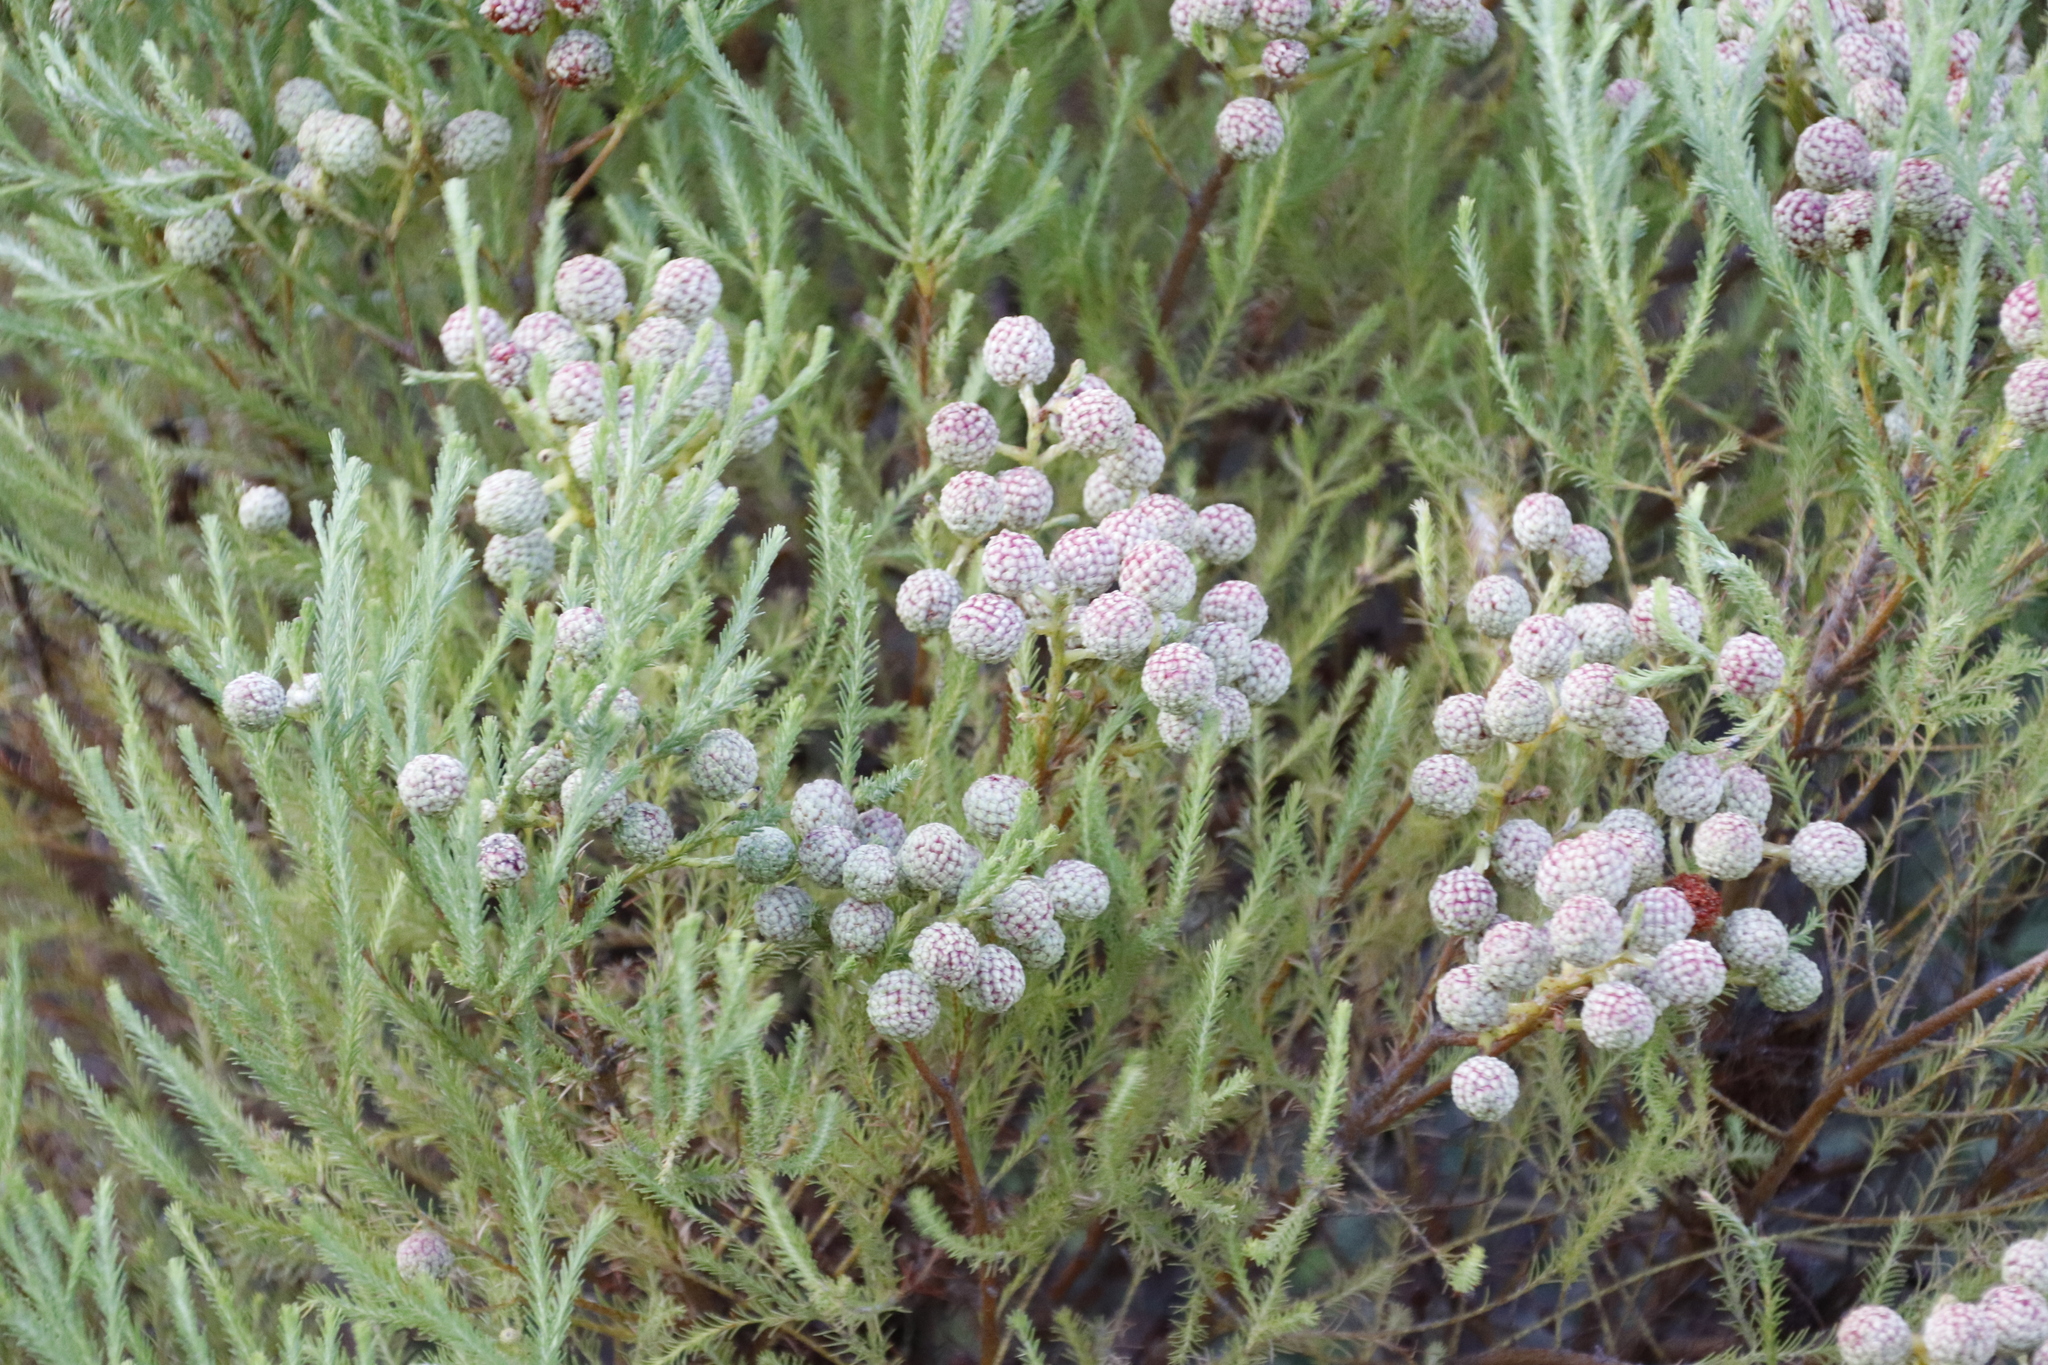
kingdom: Plantae
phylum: Tracheophyta
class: Magnoliopsida
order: Bruniales
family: Bruniaceae
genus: Berzelia
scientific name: Berzelia lanuginosa
